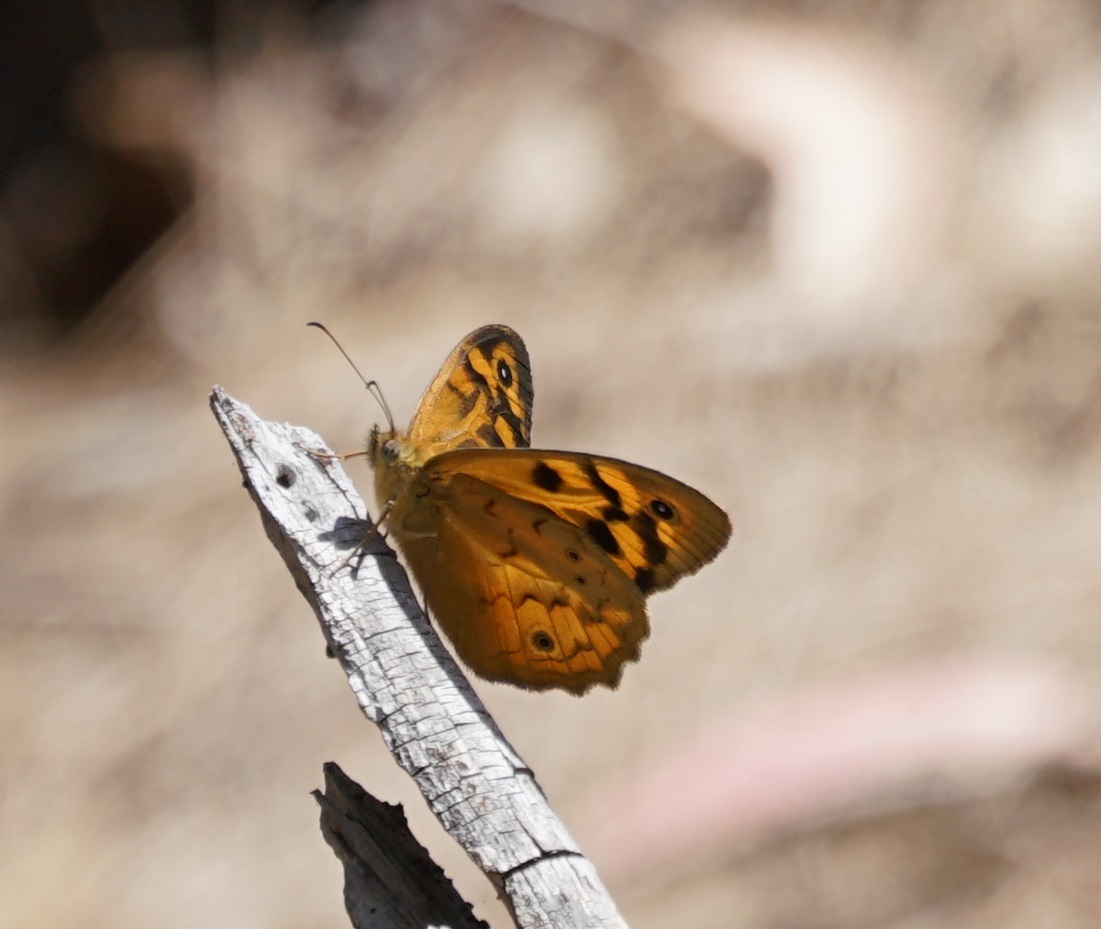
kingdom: Animalia
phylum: Arthropoda
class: Insecta
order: Lepidoptera
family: Nymphalidae
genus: Heteronympha
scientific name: Heteronympha merope
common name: Common brown
